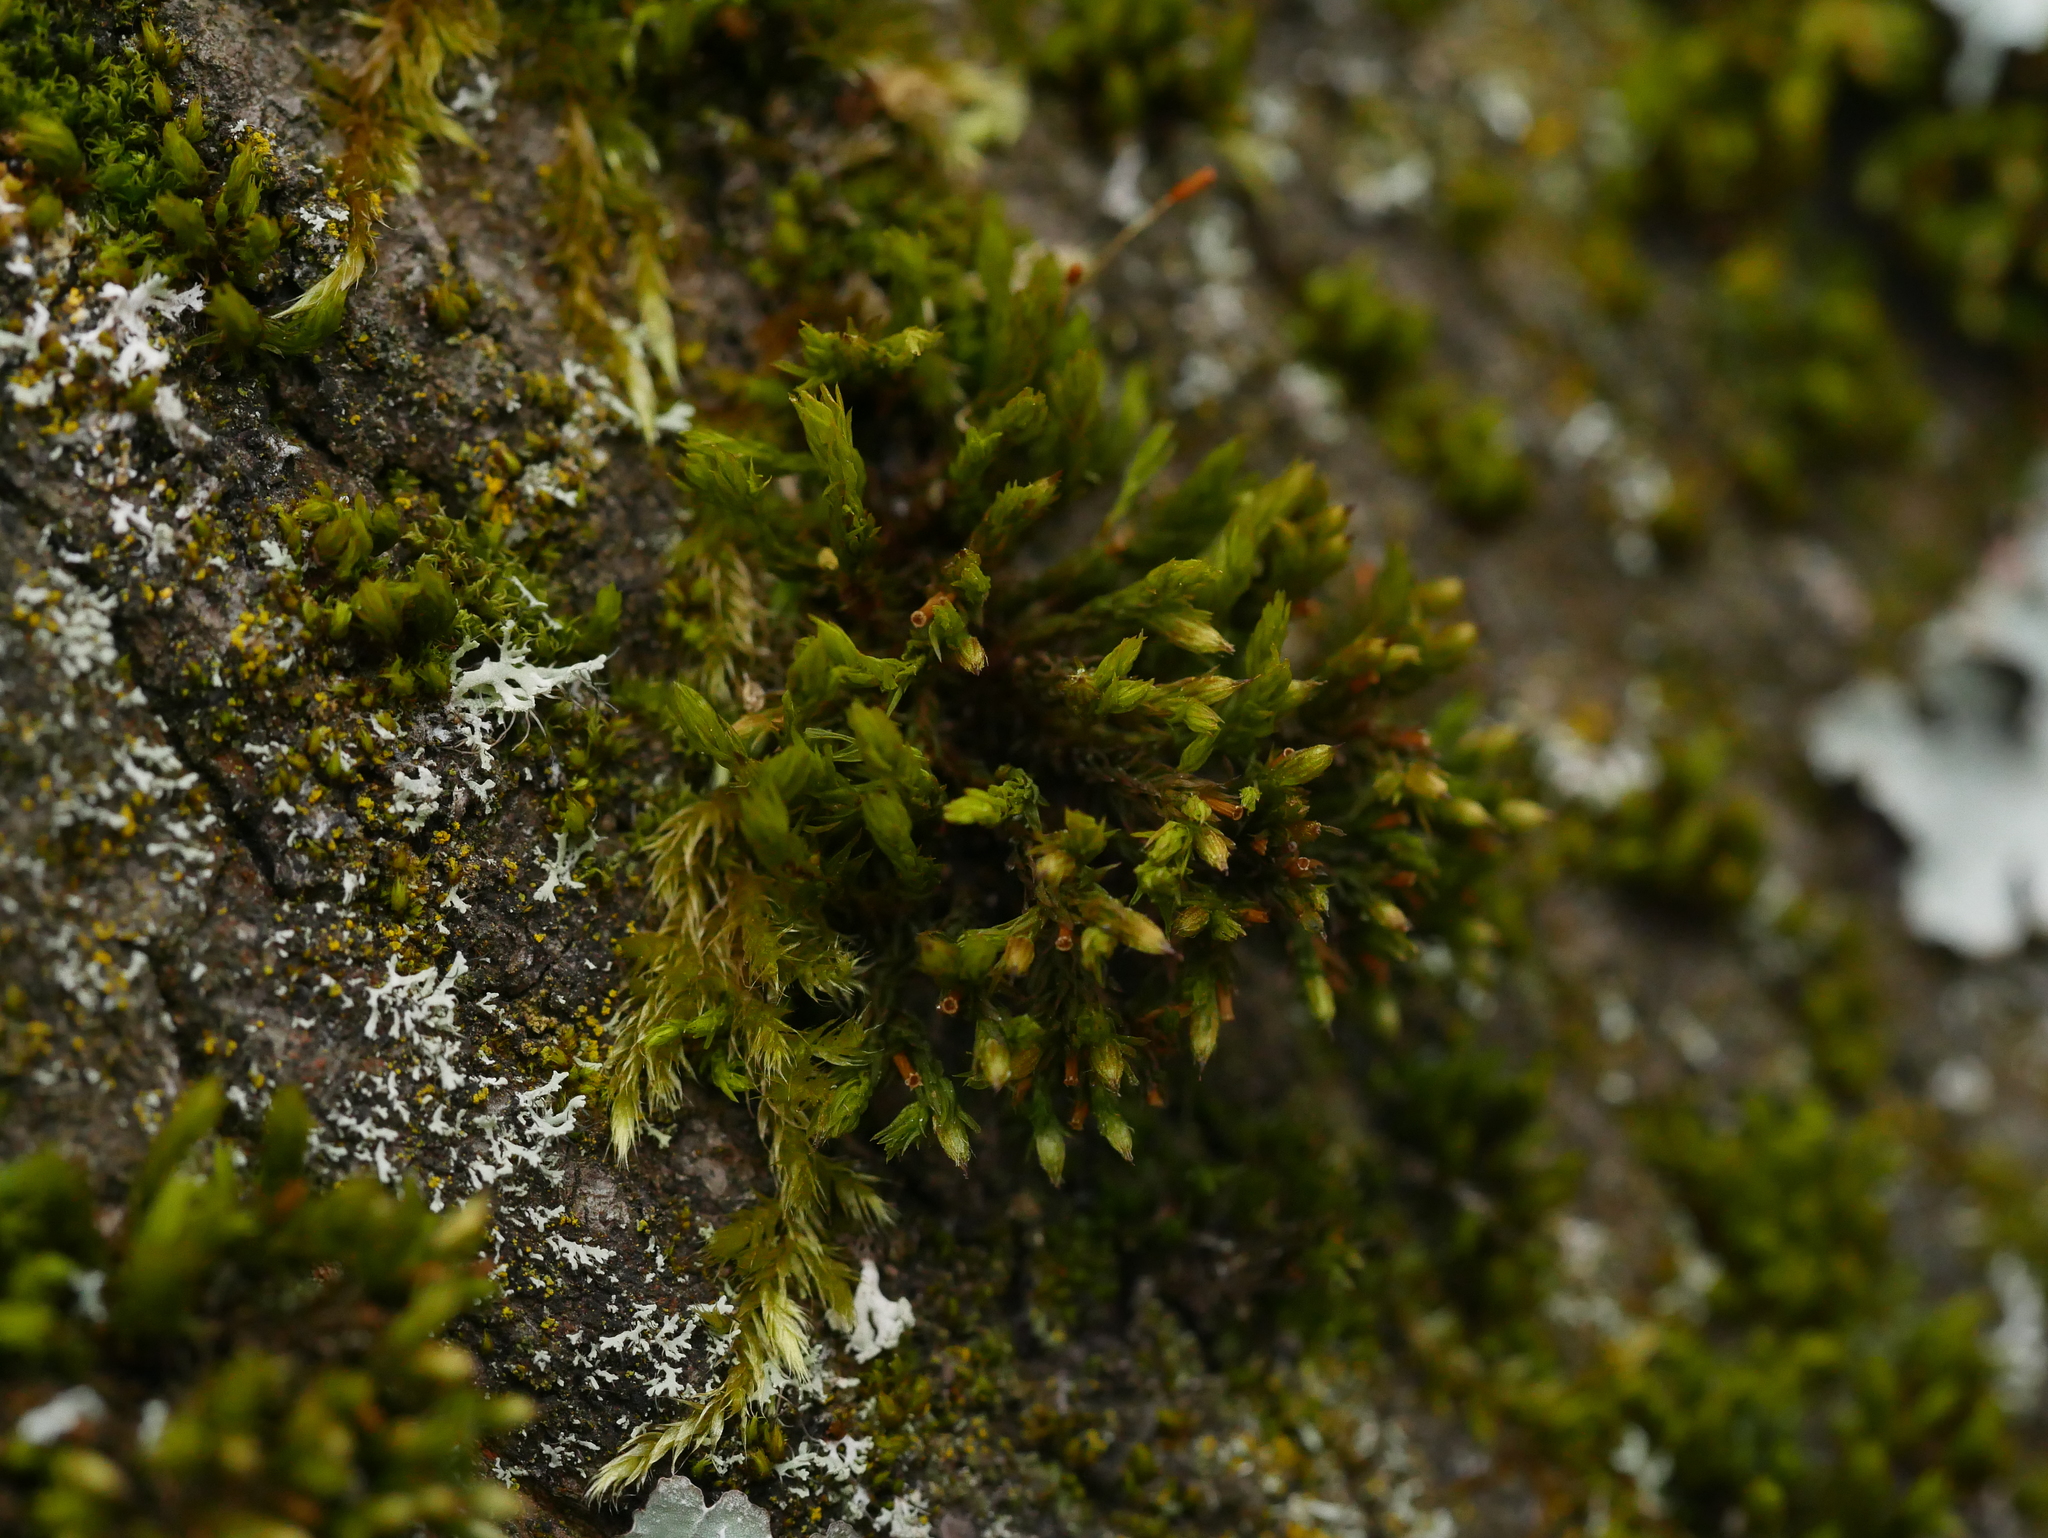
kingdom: Plantae
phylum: Bryophyta
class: Bryopsida
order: Orthotrichales
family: Orthotrichaceae
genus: Lewinskya
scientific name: Lewinskya affinis
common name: Wood bristle-moss
